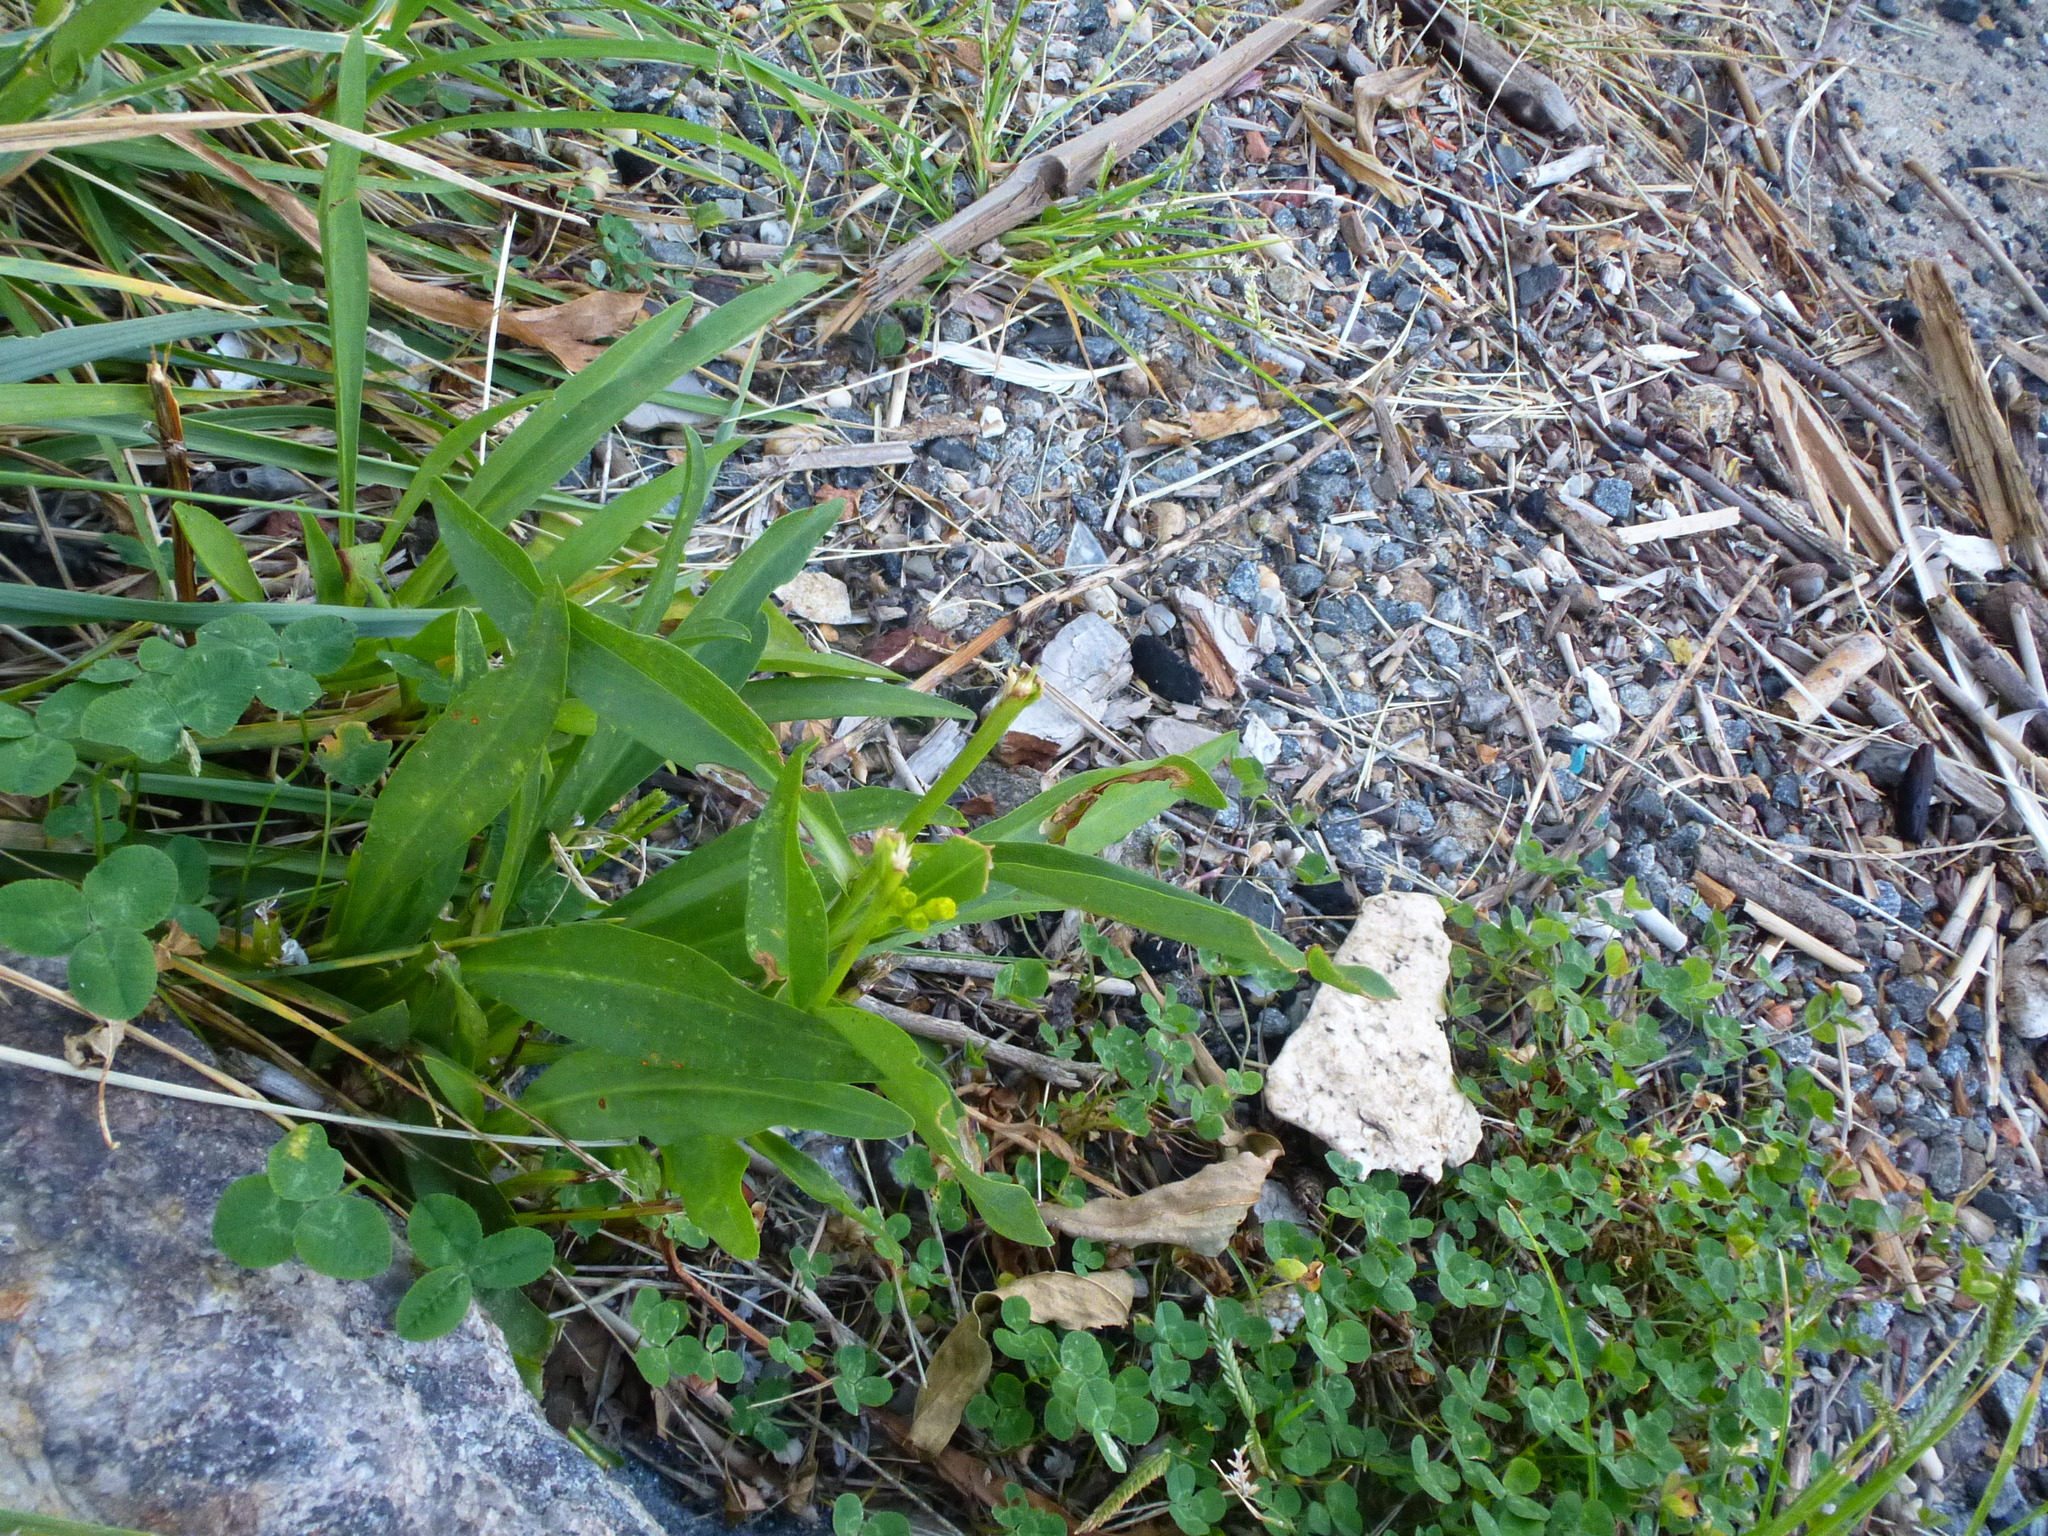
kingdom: Plantae
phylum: Tracheophyta
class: Magnoliopsida
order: Asterales
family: Asteraceae
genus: Solidago
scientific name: Solidago sempervirens
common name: Salt-marsh goldenrod
